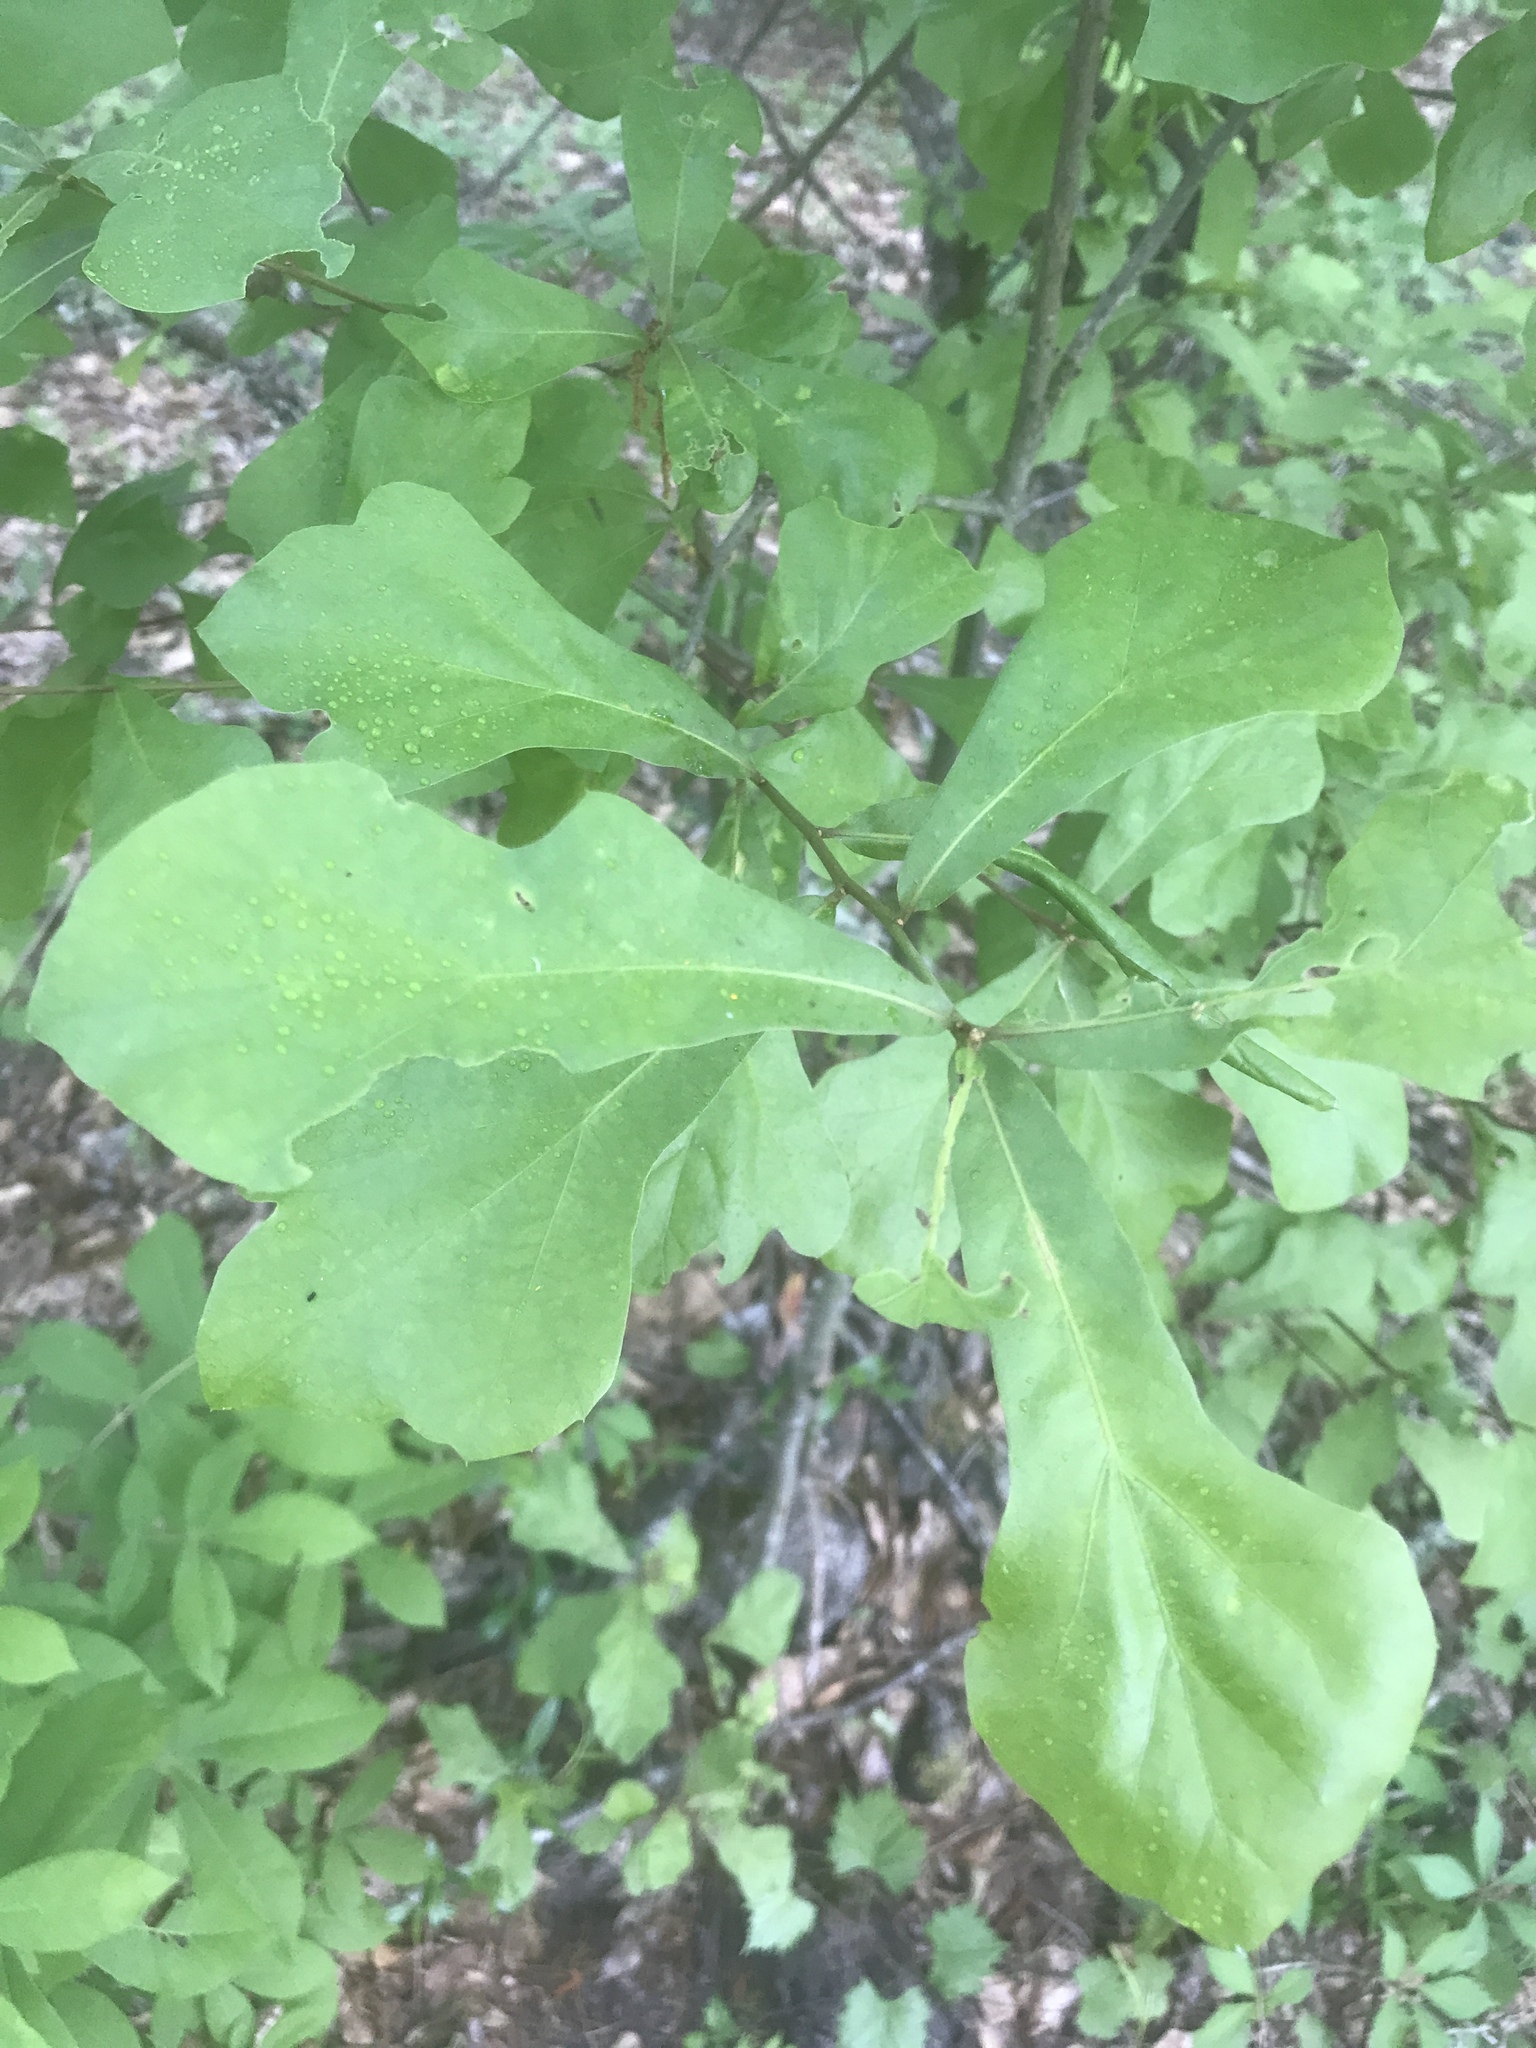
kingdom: Plantae
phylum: Tracheophyta
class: Magnoliopsida
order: Fagales
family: Fagaceae
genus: Quercus
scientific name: Quercus nigra
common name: Water oak
